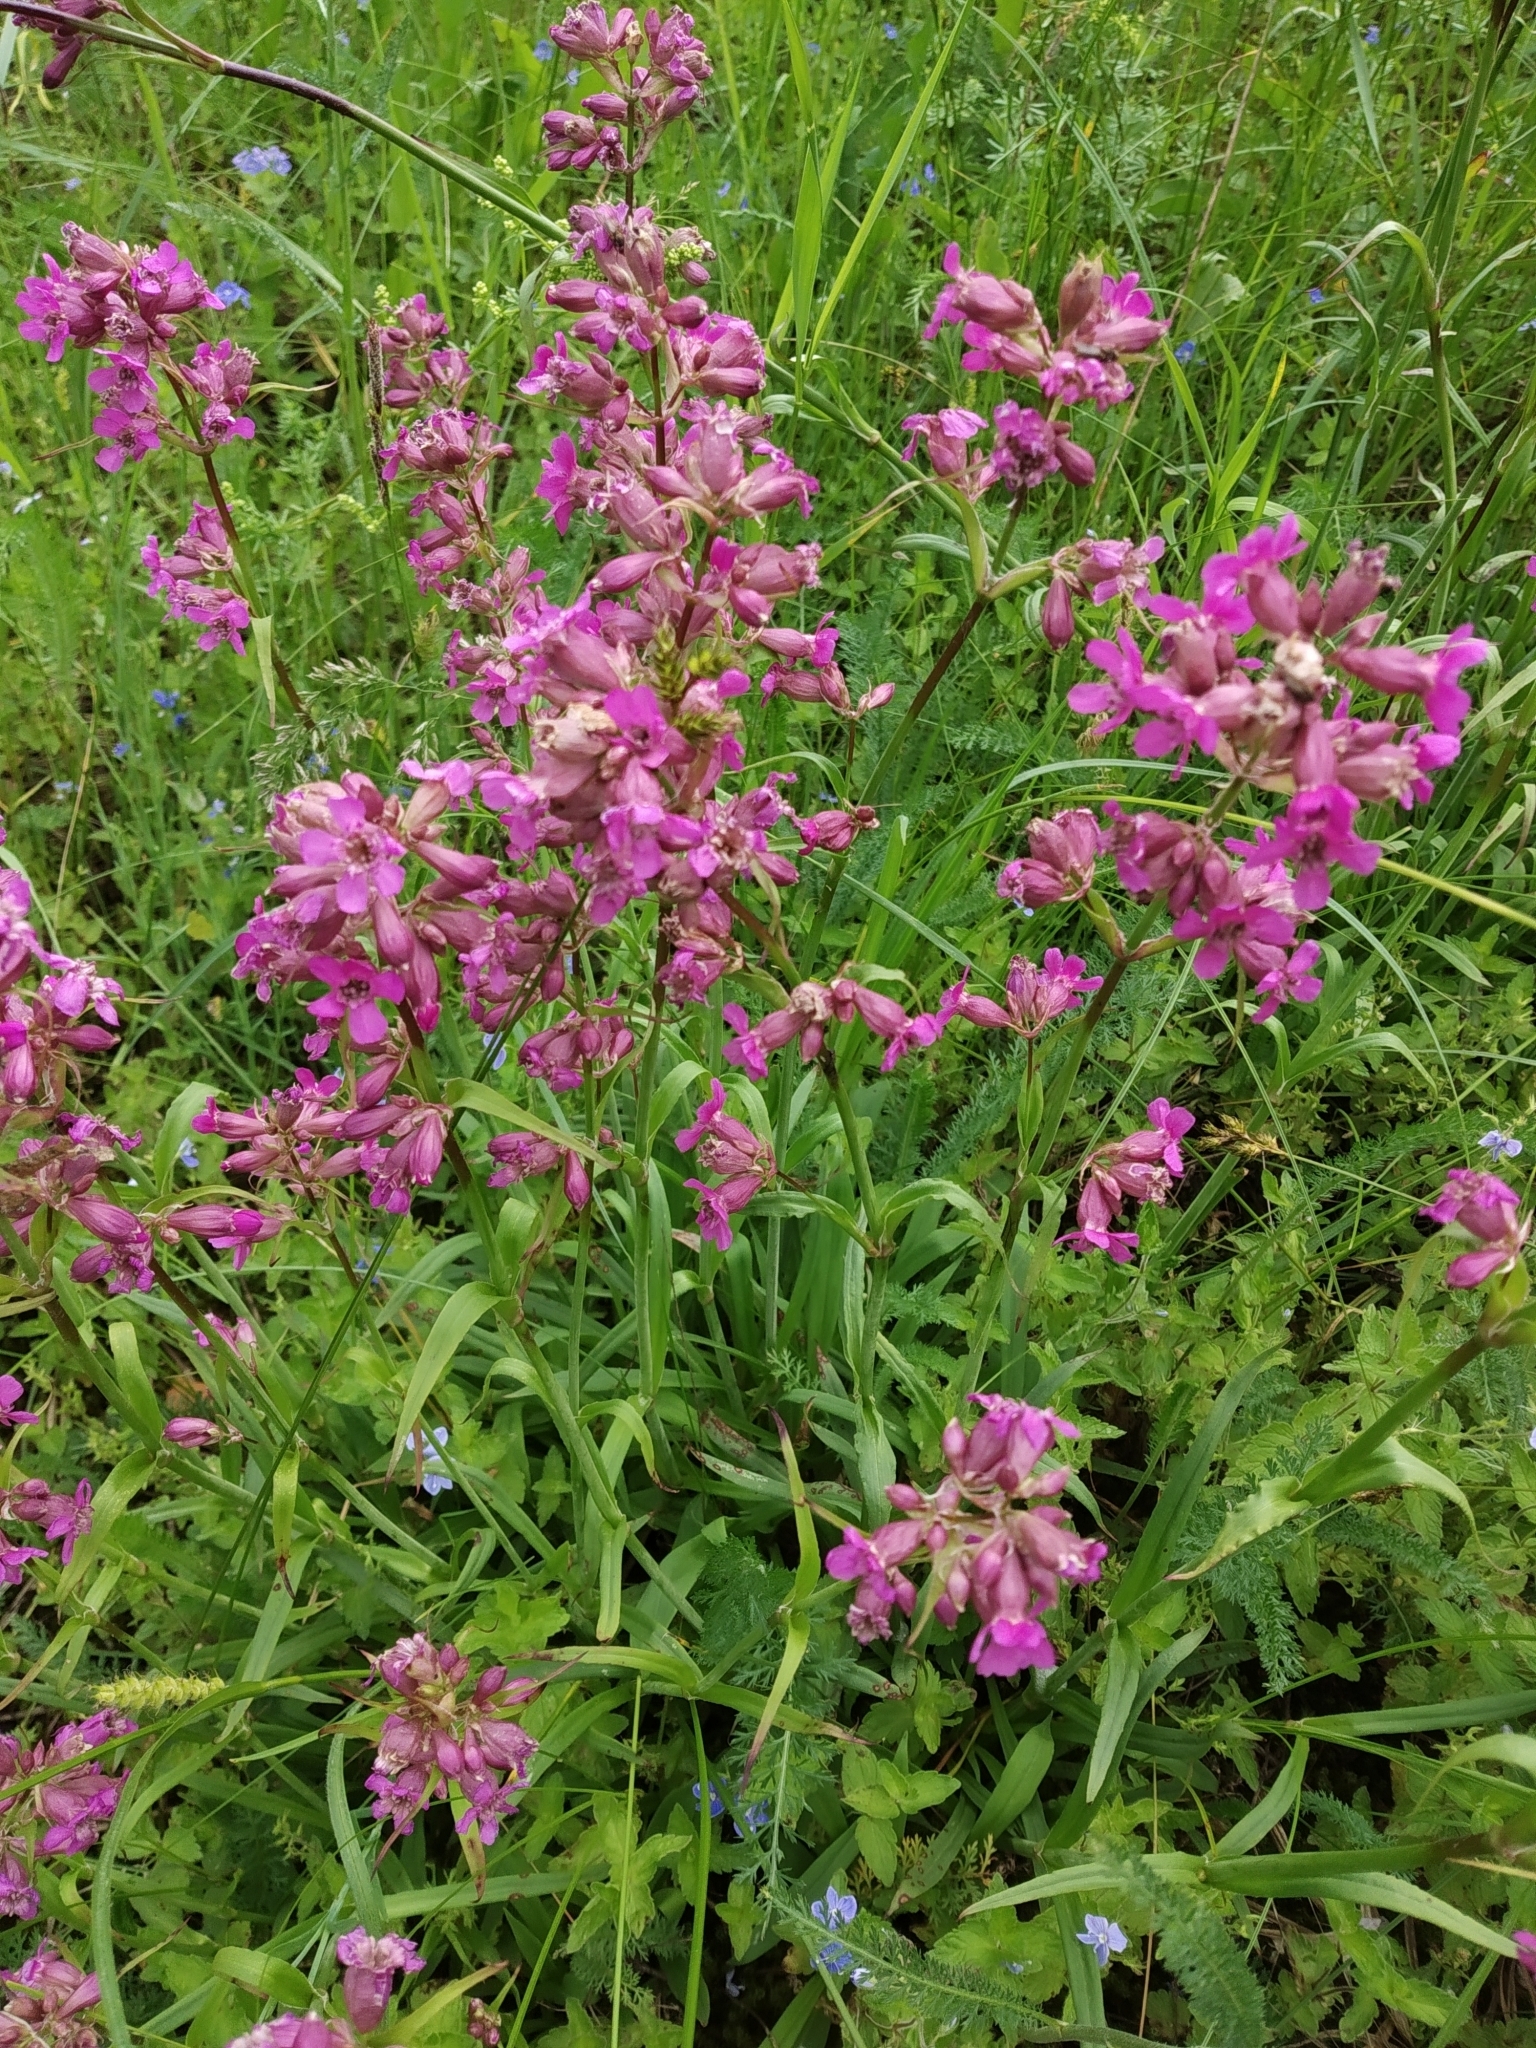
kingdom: Plantae
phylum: Tracheophyta
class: Magnoliopsida
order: Caryophyllales
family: Caryophyllaceae
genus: Viscaria
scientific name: Viscaria vulgaris
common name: Clammy campion
